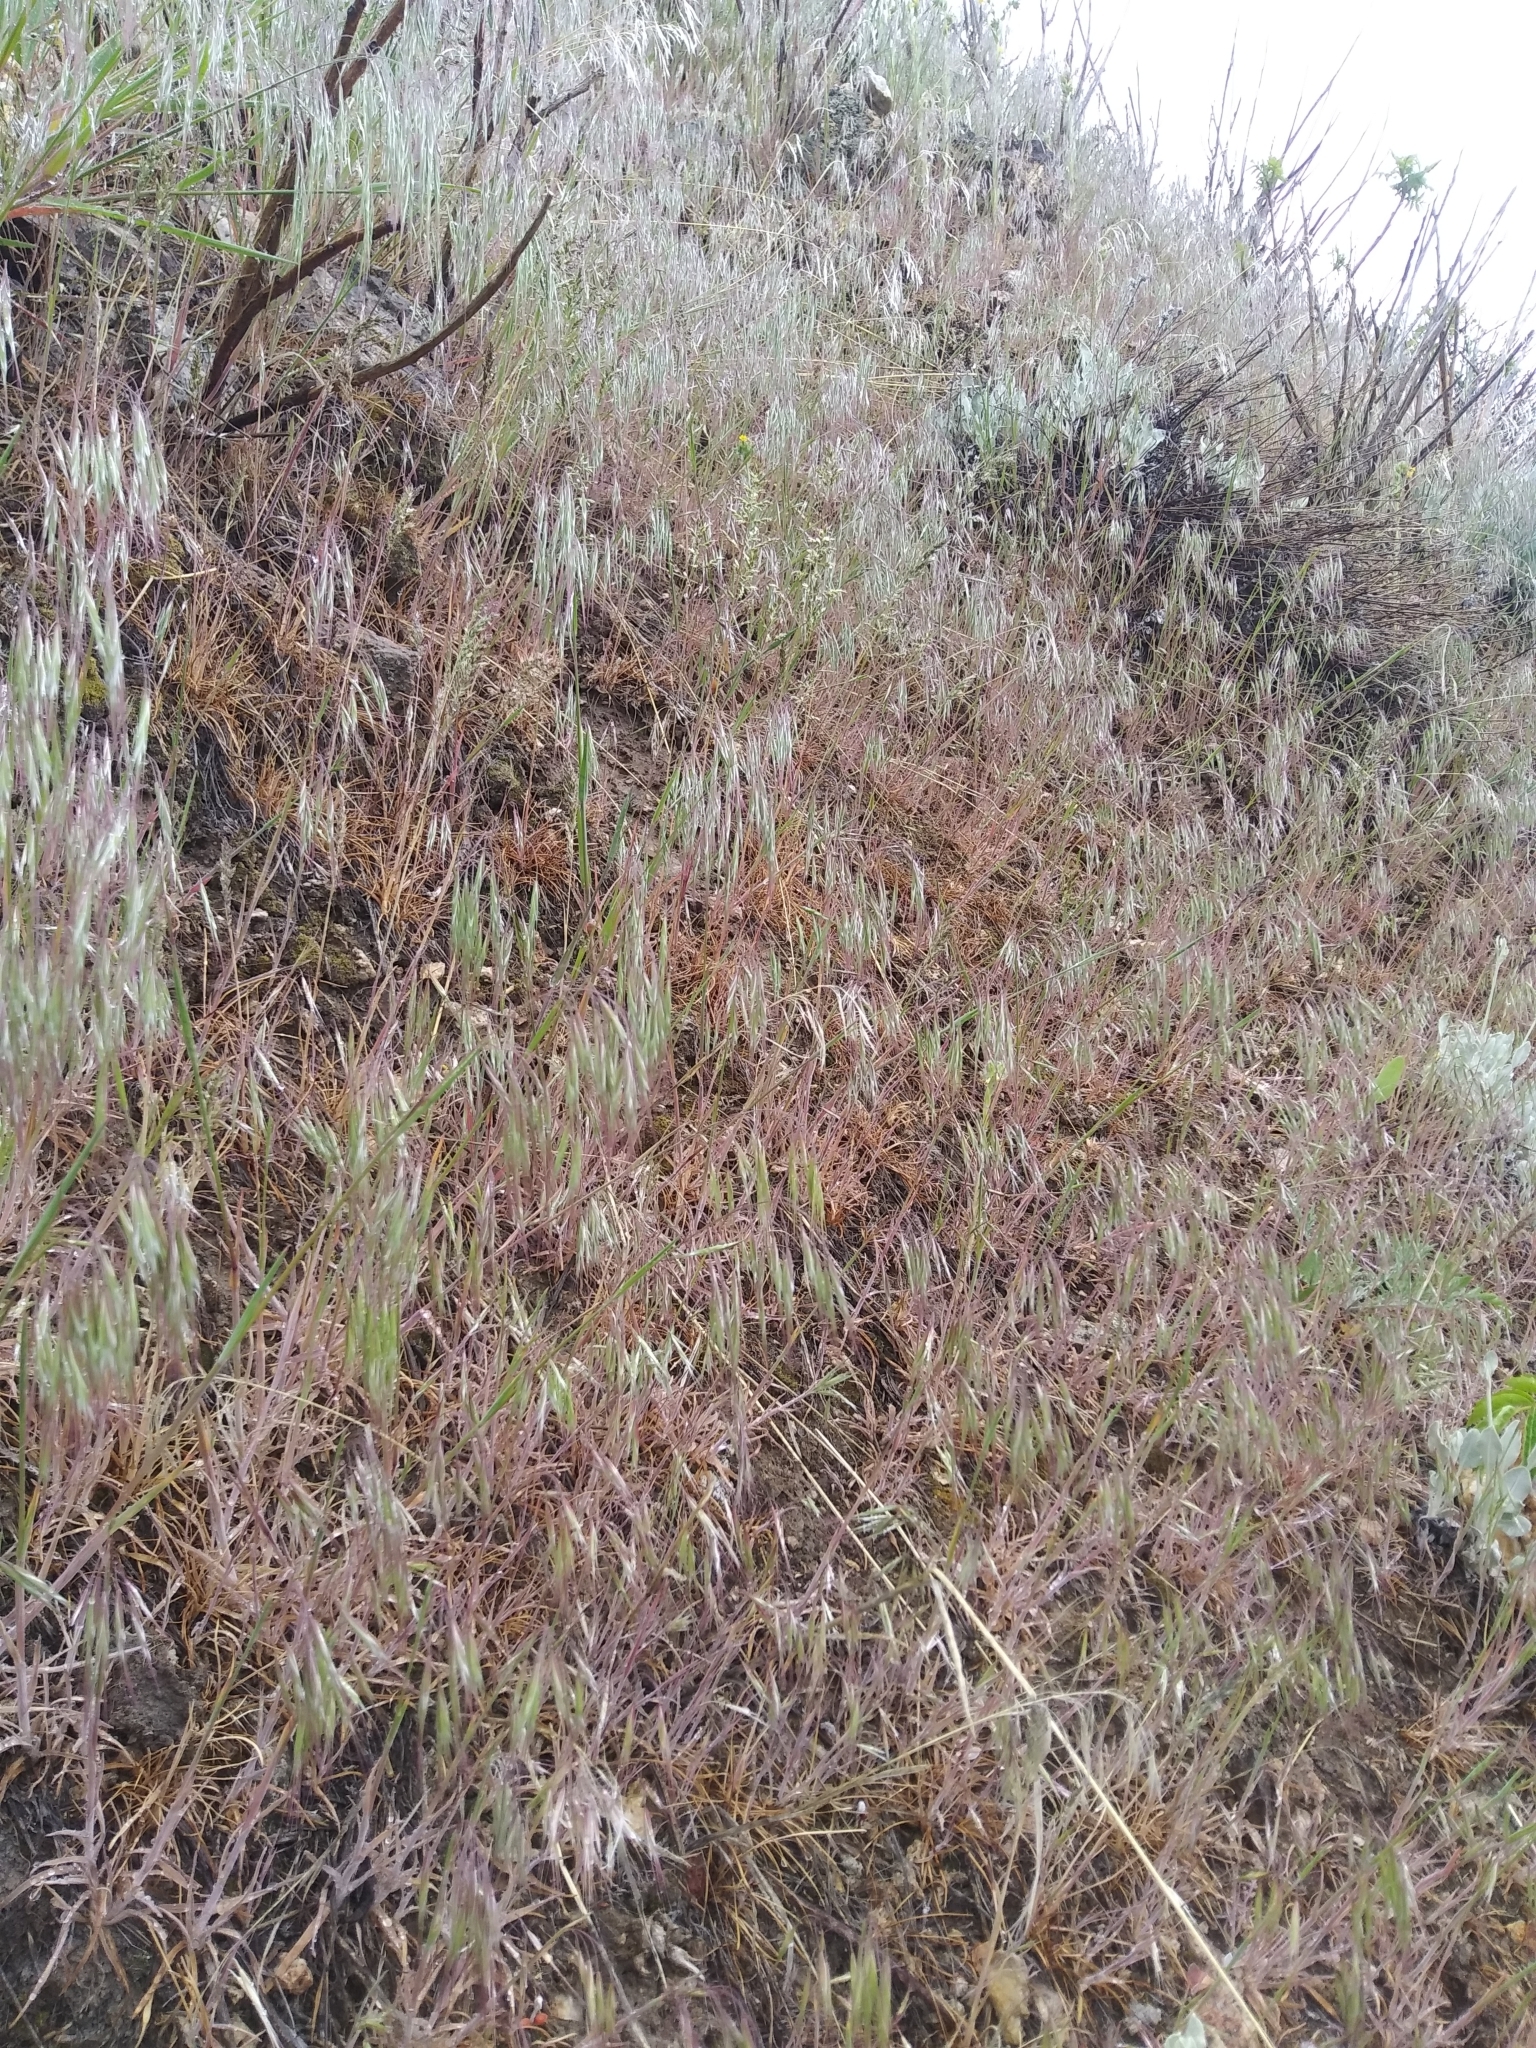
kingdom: Plantae
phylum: Tracheophyta
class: Liliopsida
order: Poales
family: Poaceae
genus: Bromus
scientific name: Bromus tectorum
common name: Cheatgrass
